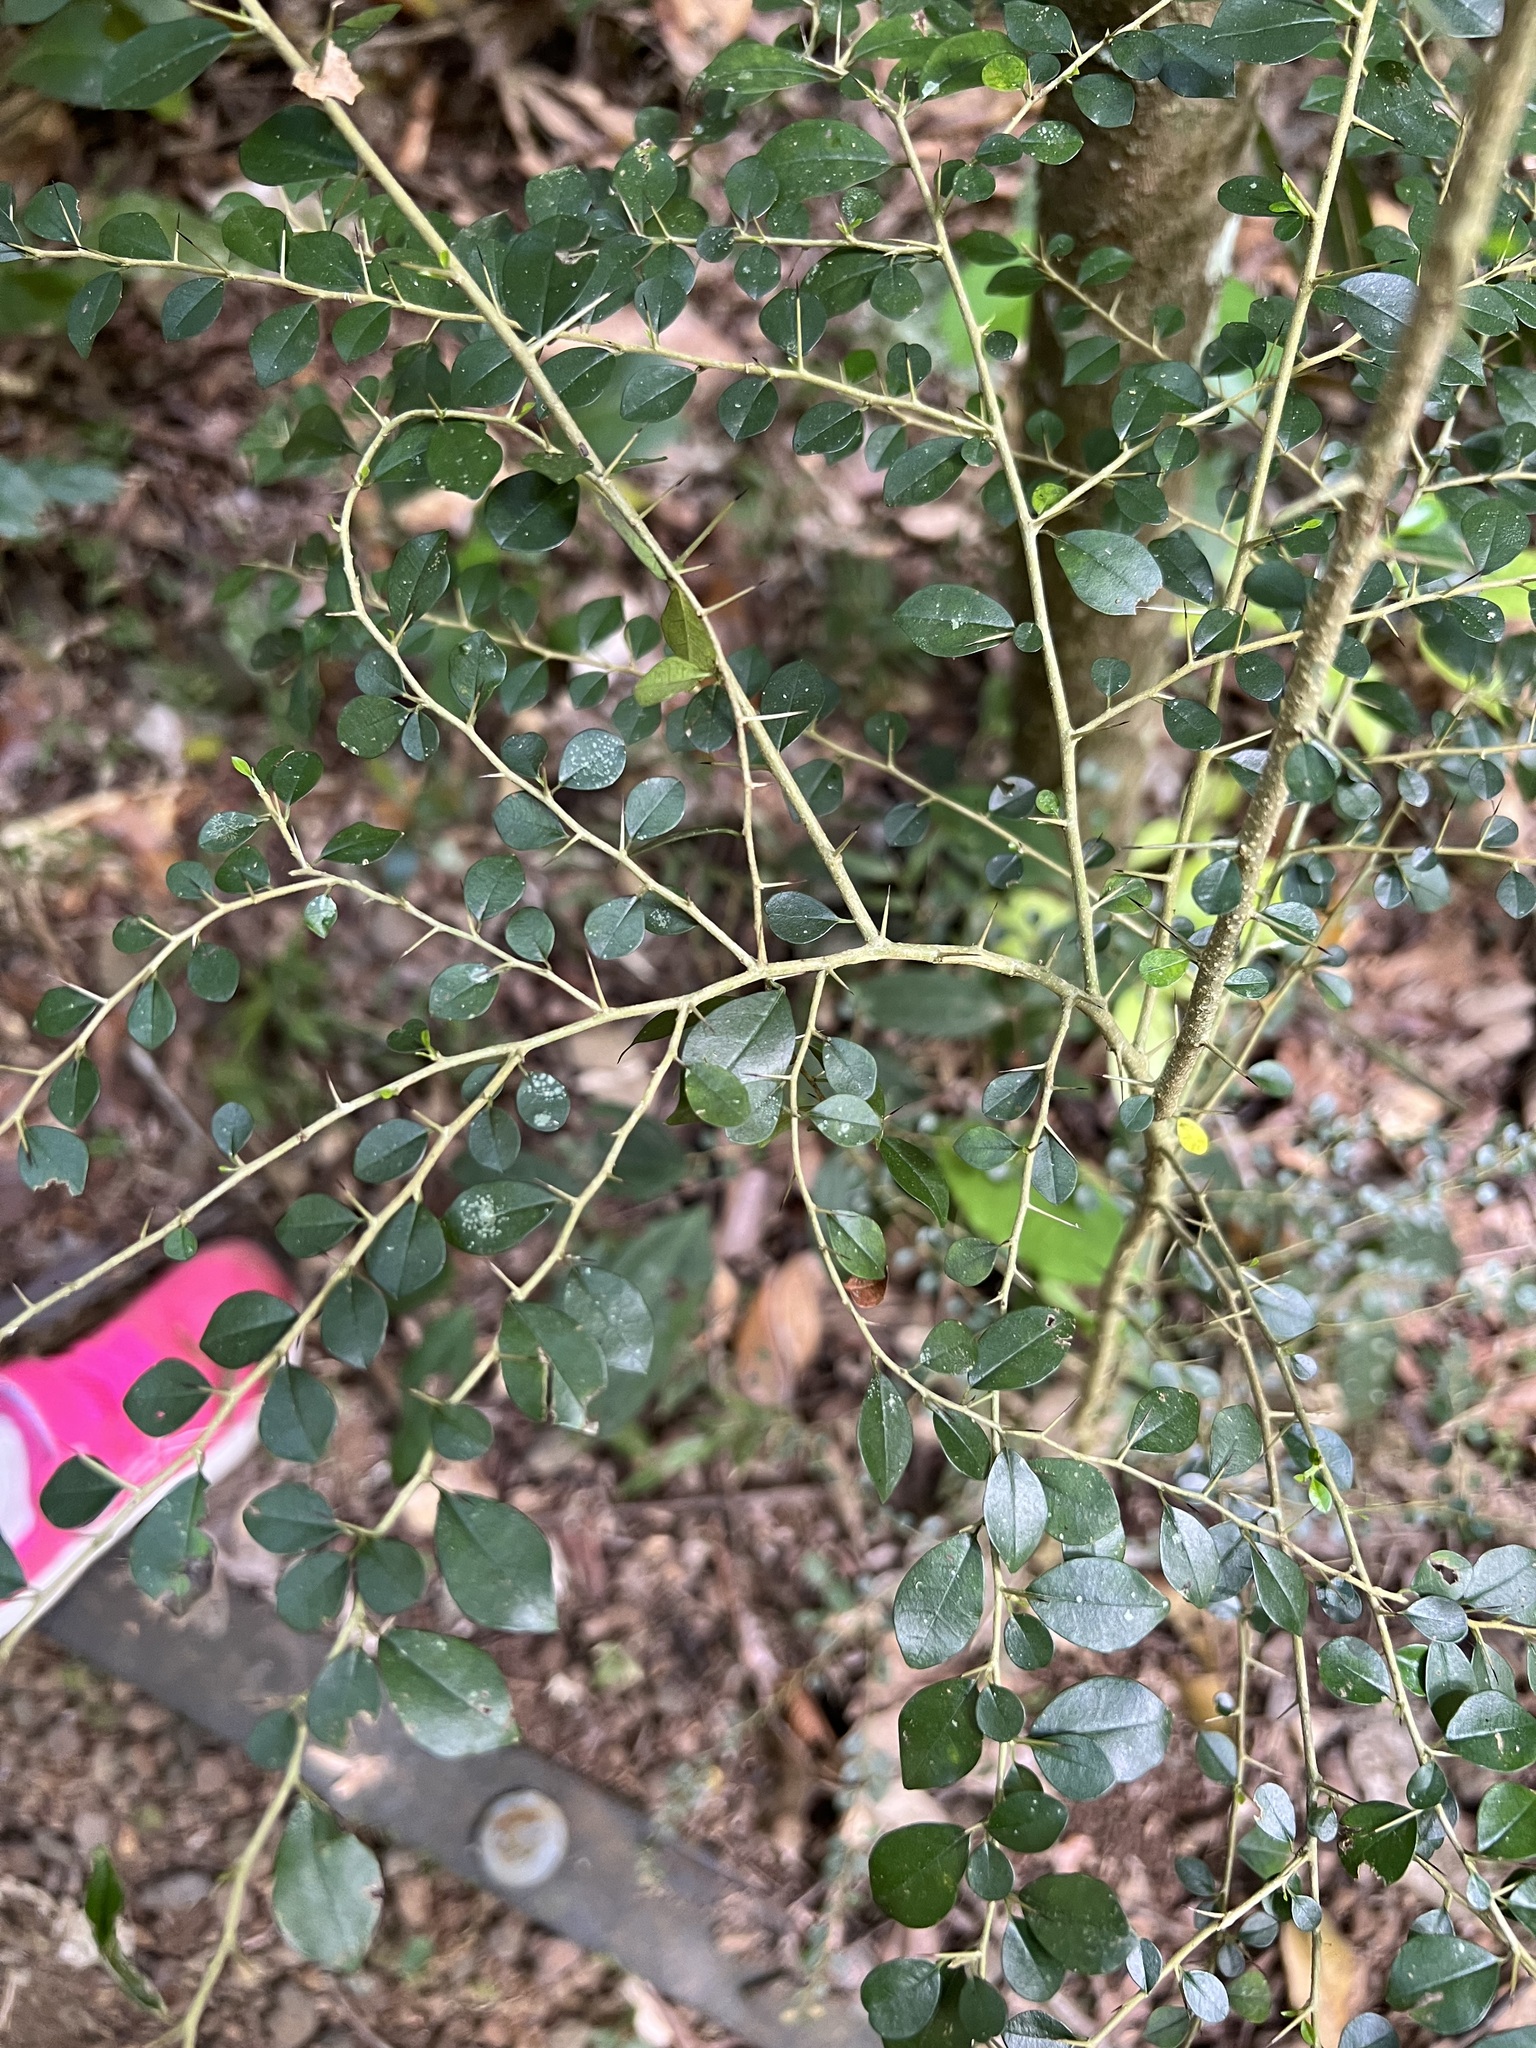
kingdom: Plantae
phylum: Tracheophyta
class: Magnoliopsida
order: Rosales
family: Moraceae
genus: Maclura
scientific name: Maclura cochinchinensis
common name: Cockspurthorn
